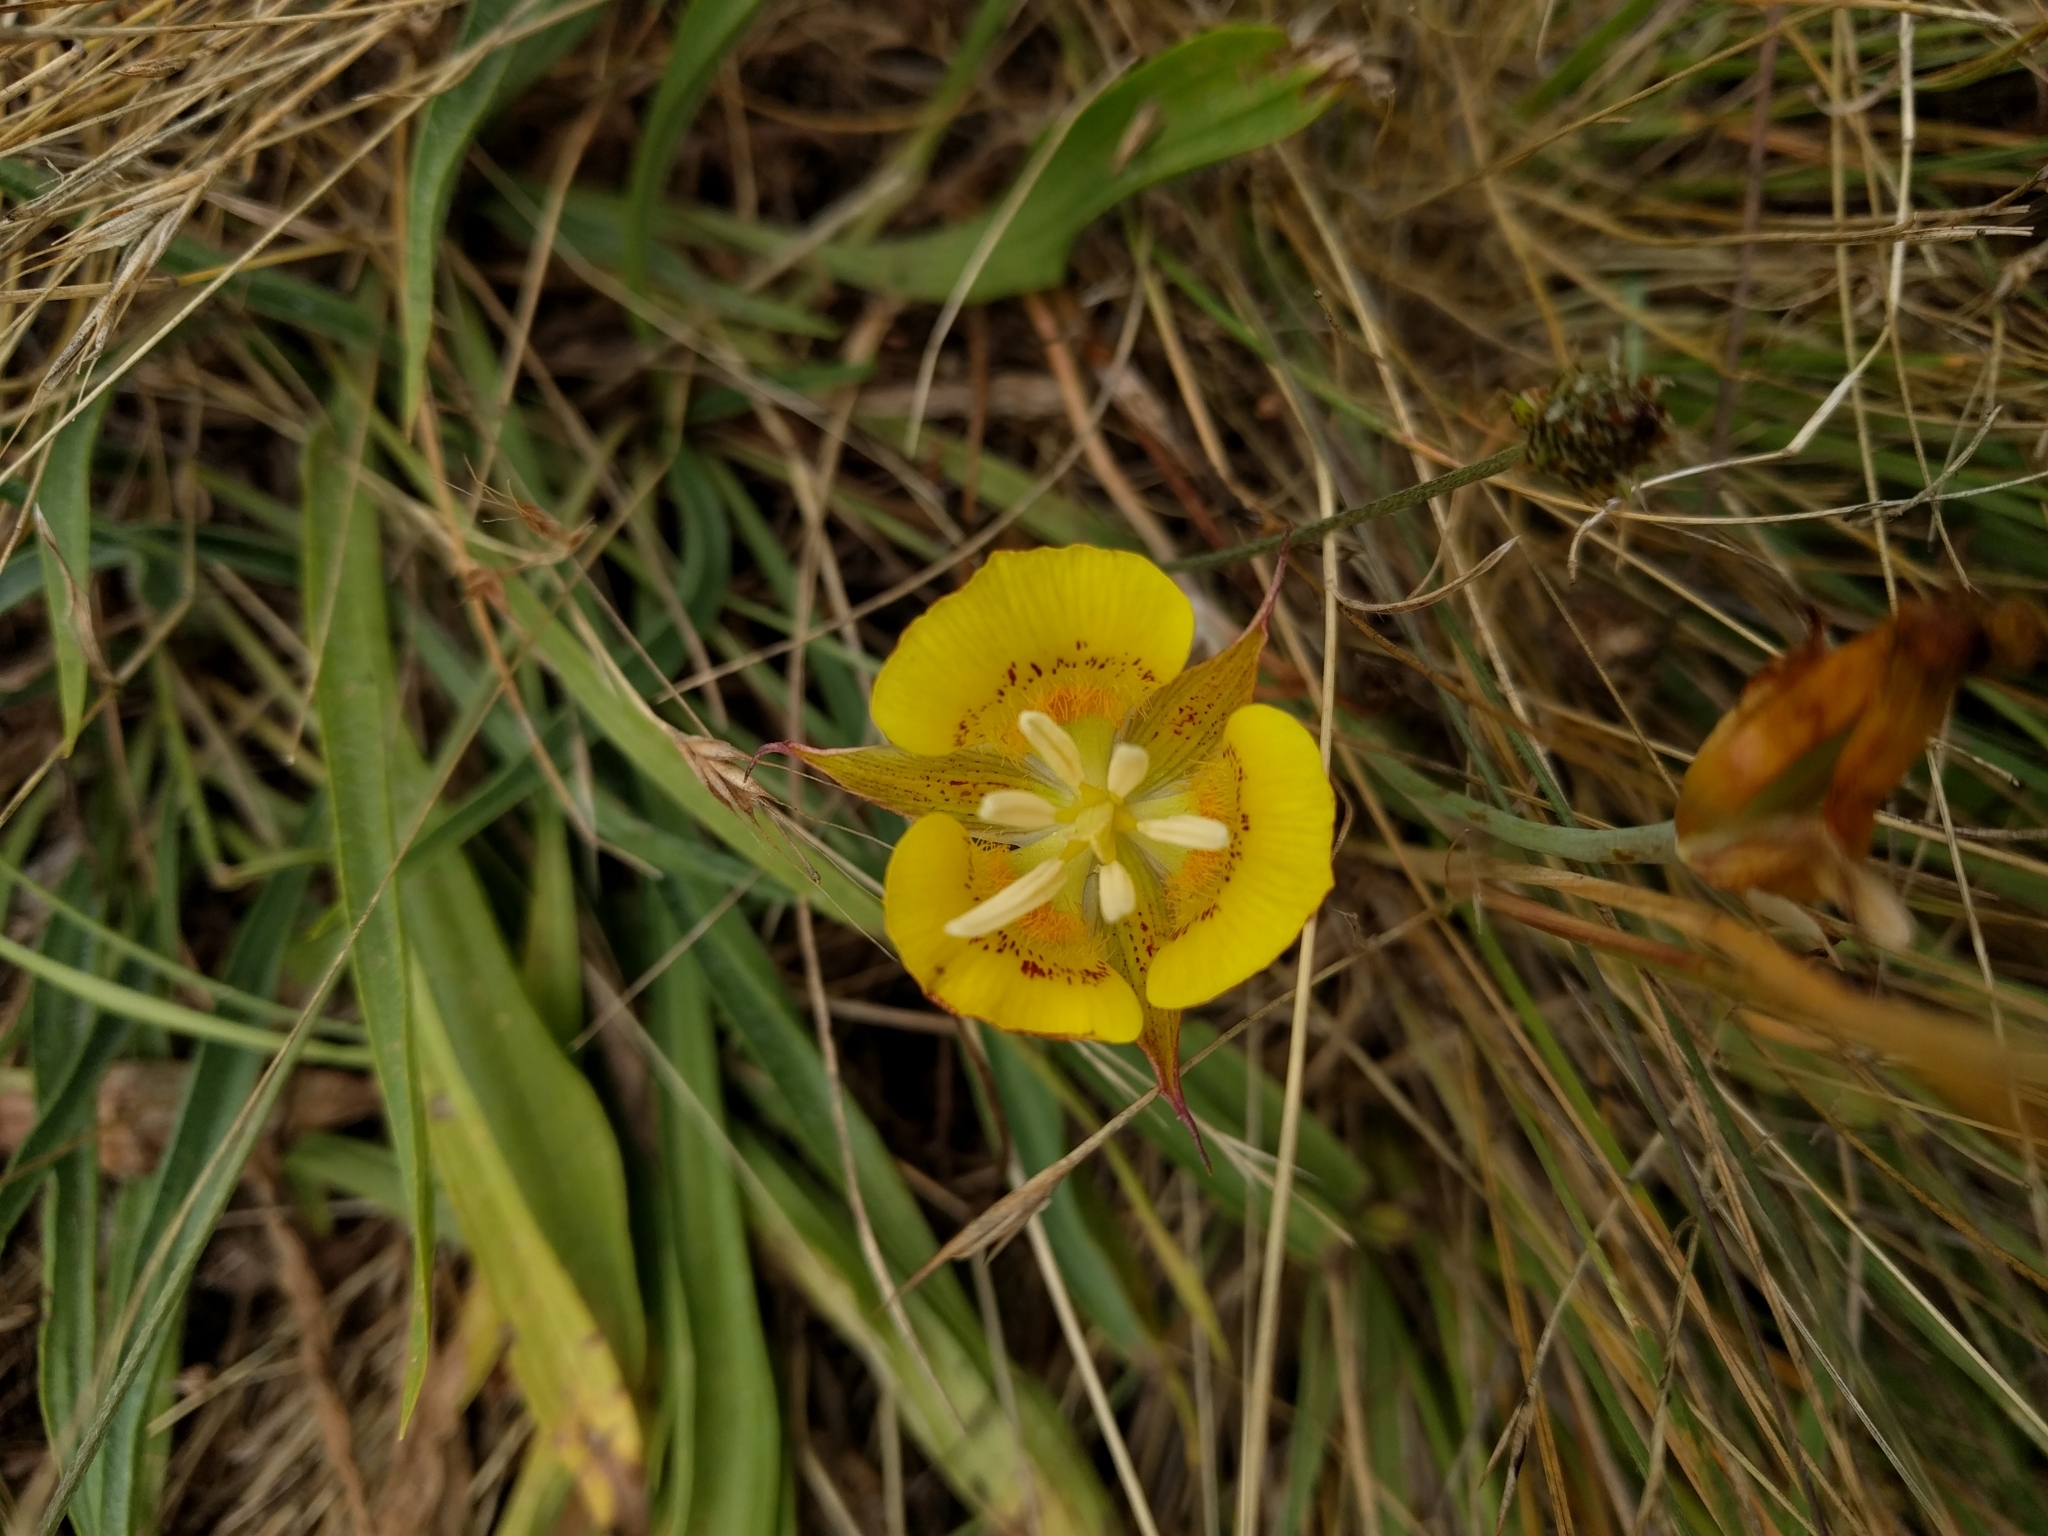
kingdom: Plantae
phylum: Tracheophyta
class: Liliopsida
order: Liliales
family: Liliaceae
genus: Calochortus
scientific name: Calochortus luteus
